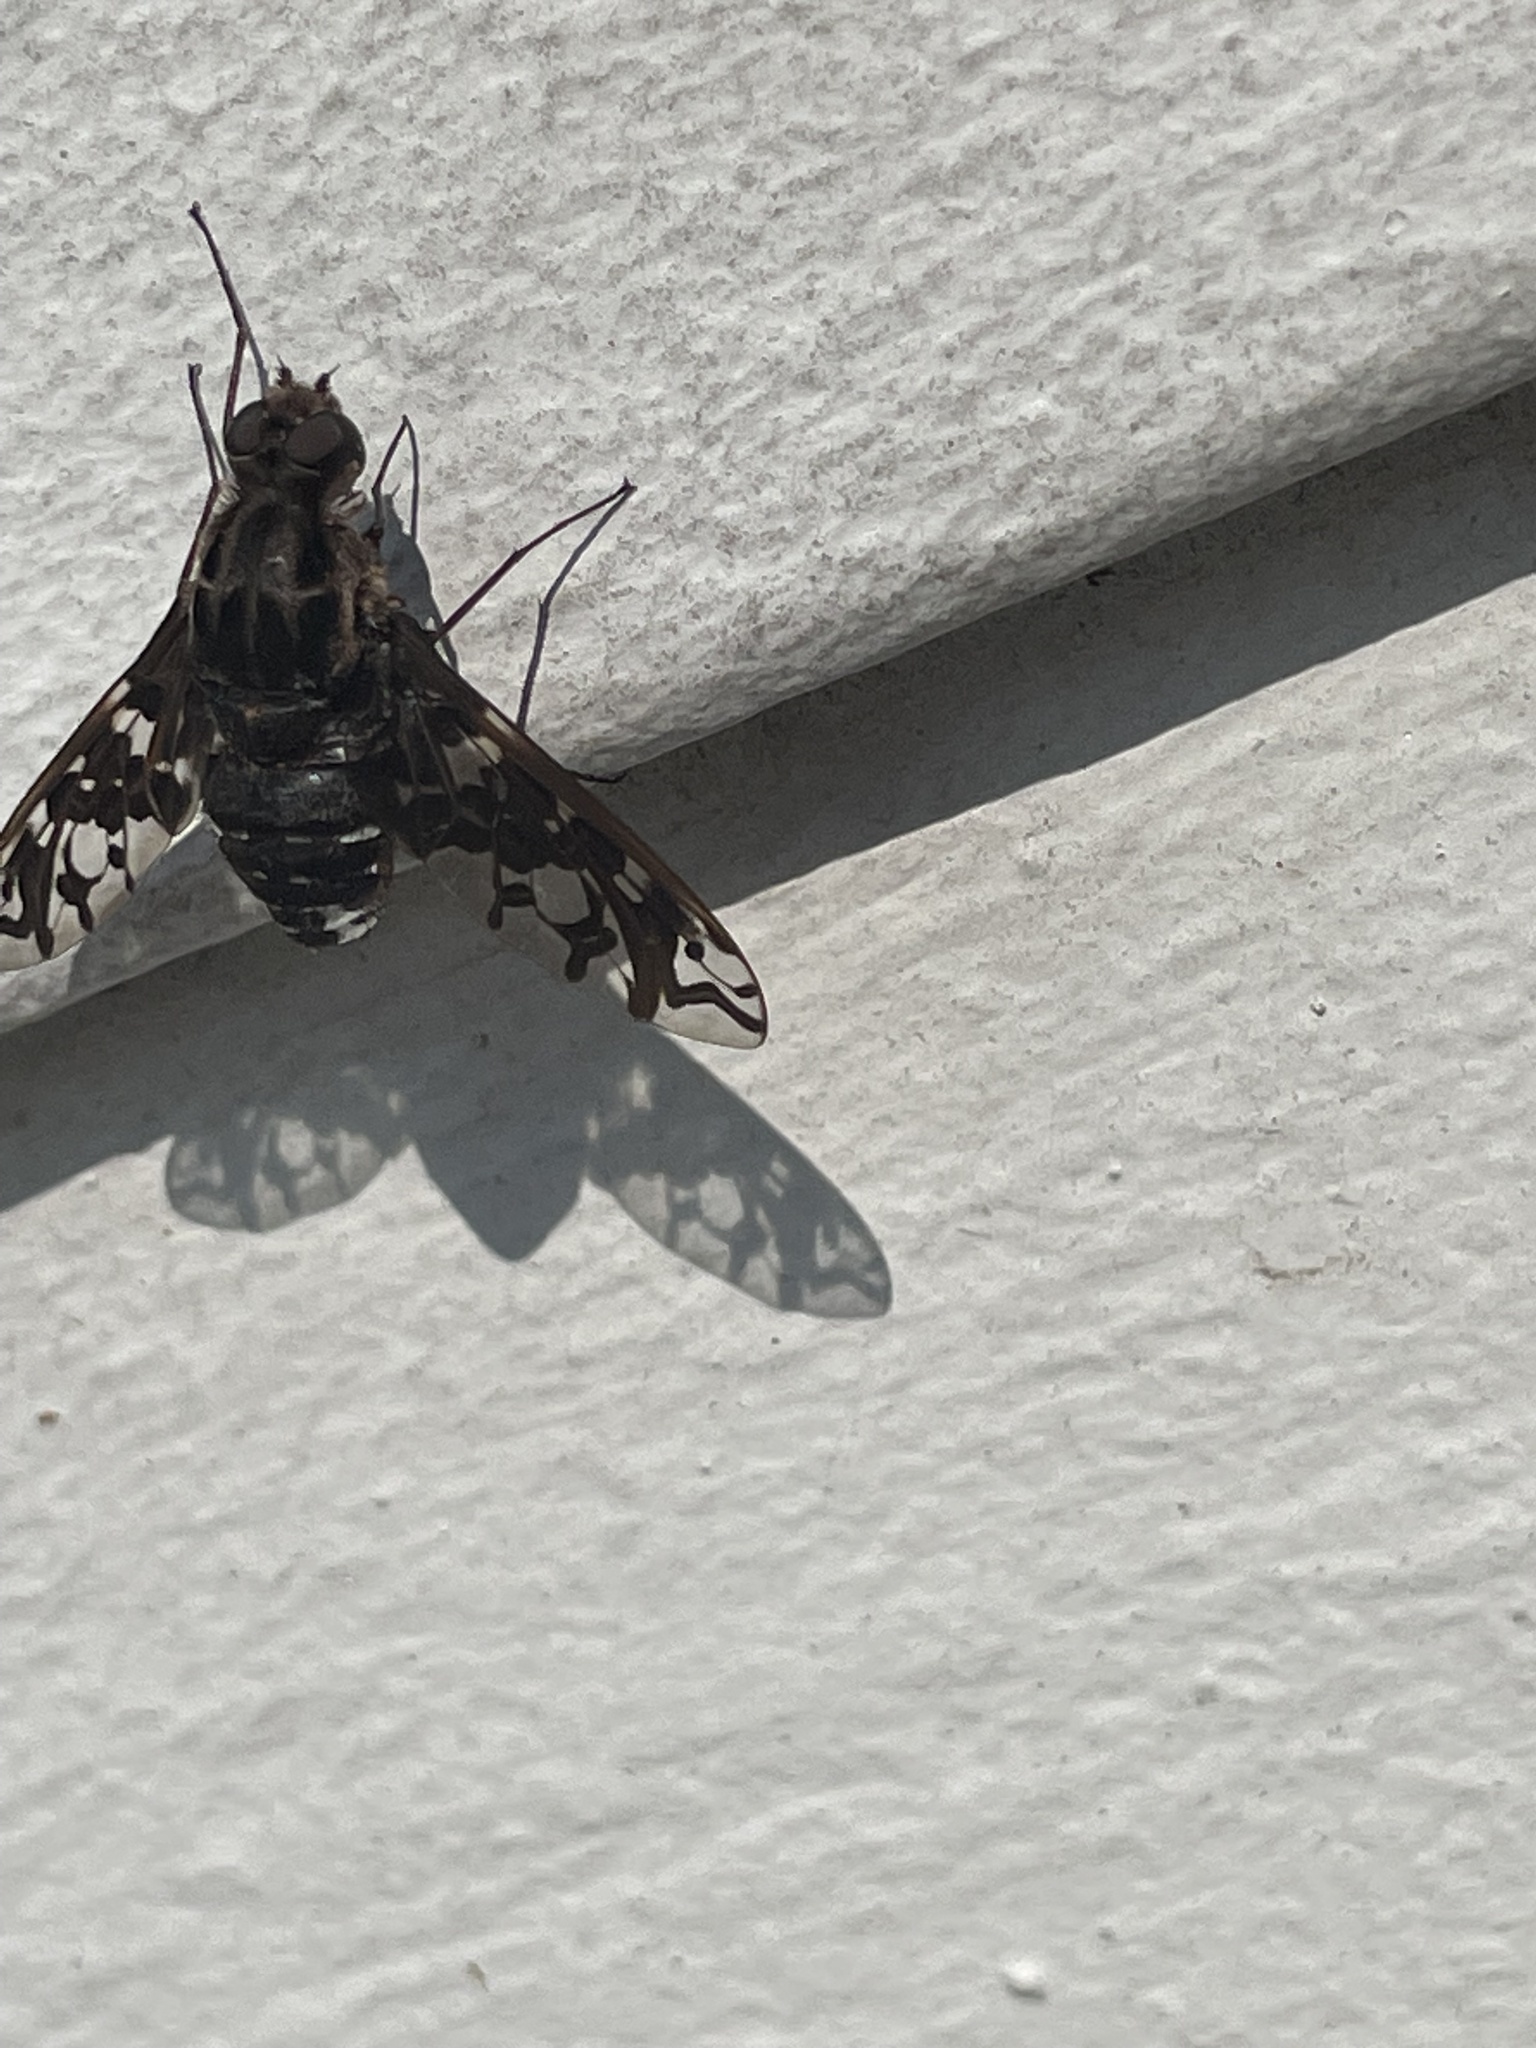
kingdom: Animalia
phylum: Arthropoda
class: Insecta
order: Diptera
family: Bombyliidae
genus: Xenox
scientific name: Xenox tigrinus
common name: Tiger bee fly
